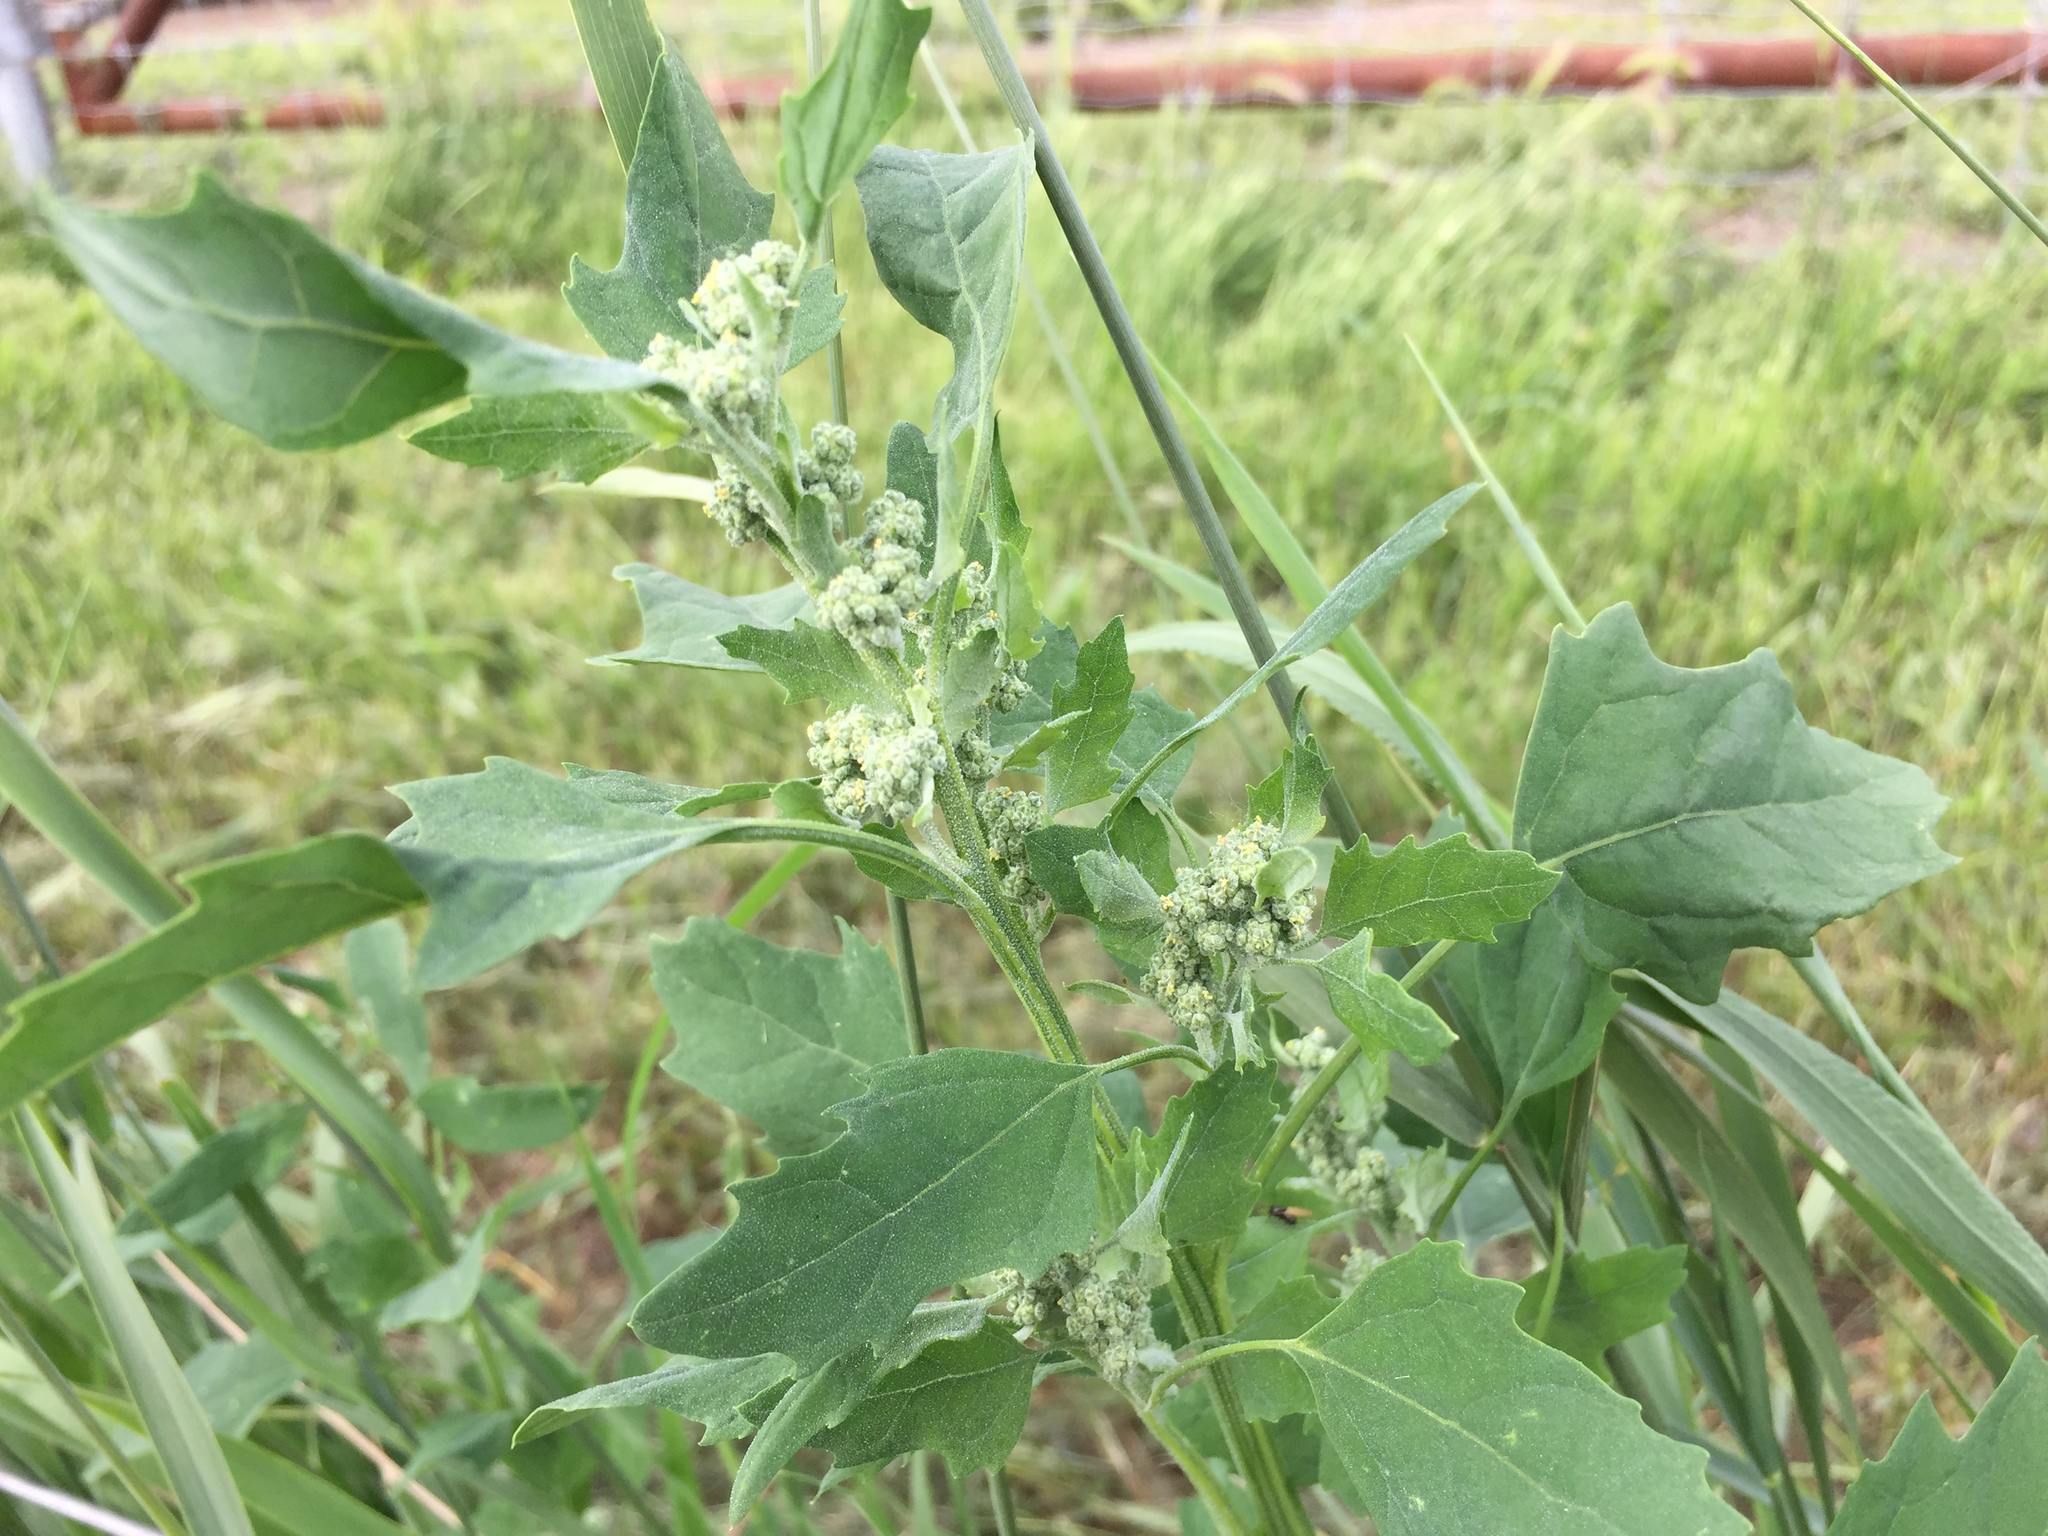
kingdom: Plantae
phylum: Tracheophyta
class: Magnoliopsida
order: Caryophyllales
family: Amaranthaceae
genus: Chenopodium
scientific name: Chenopodium album
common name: Fat-hen
